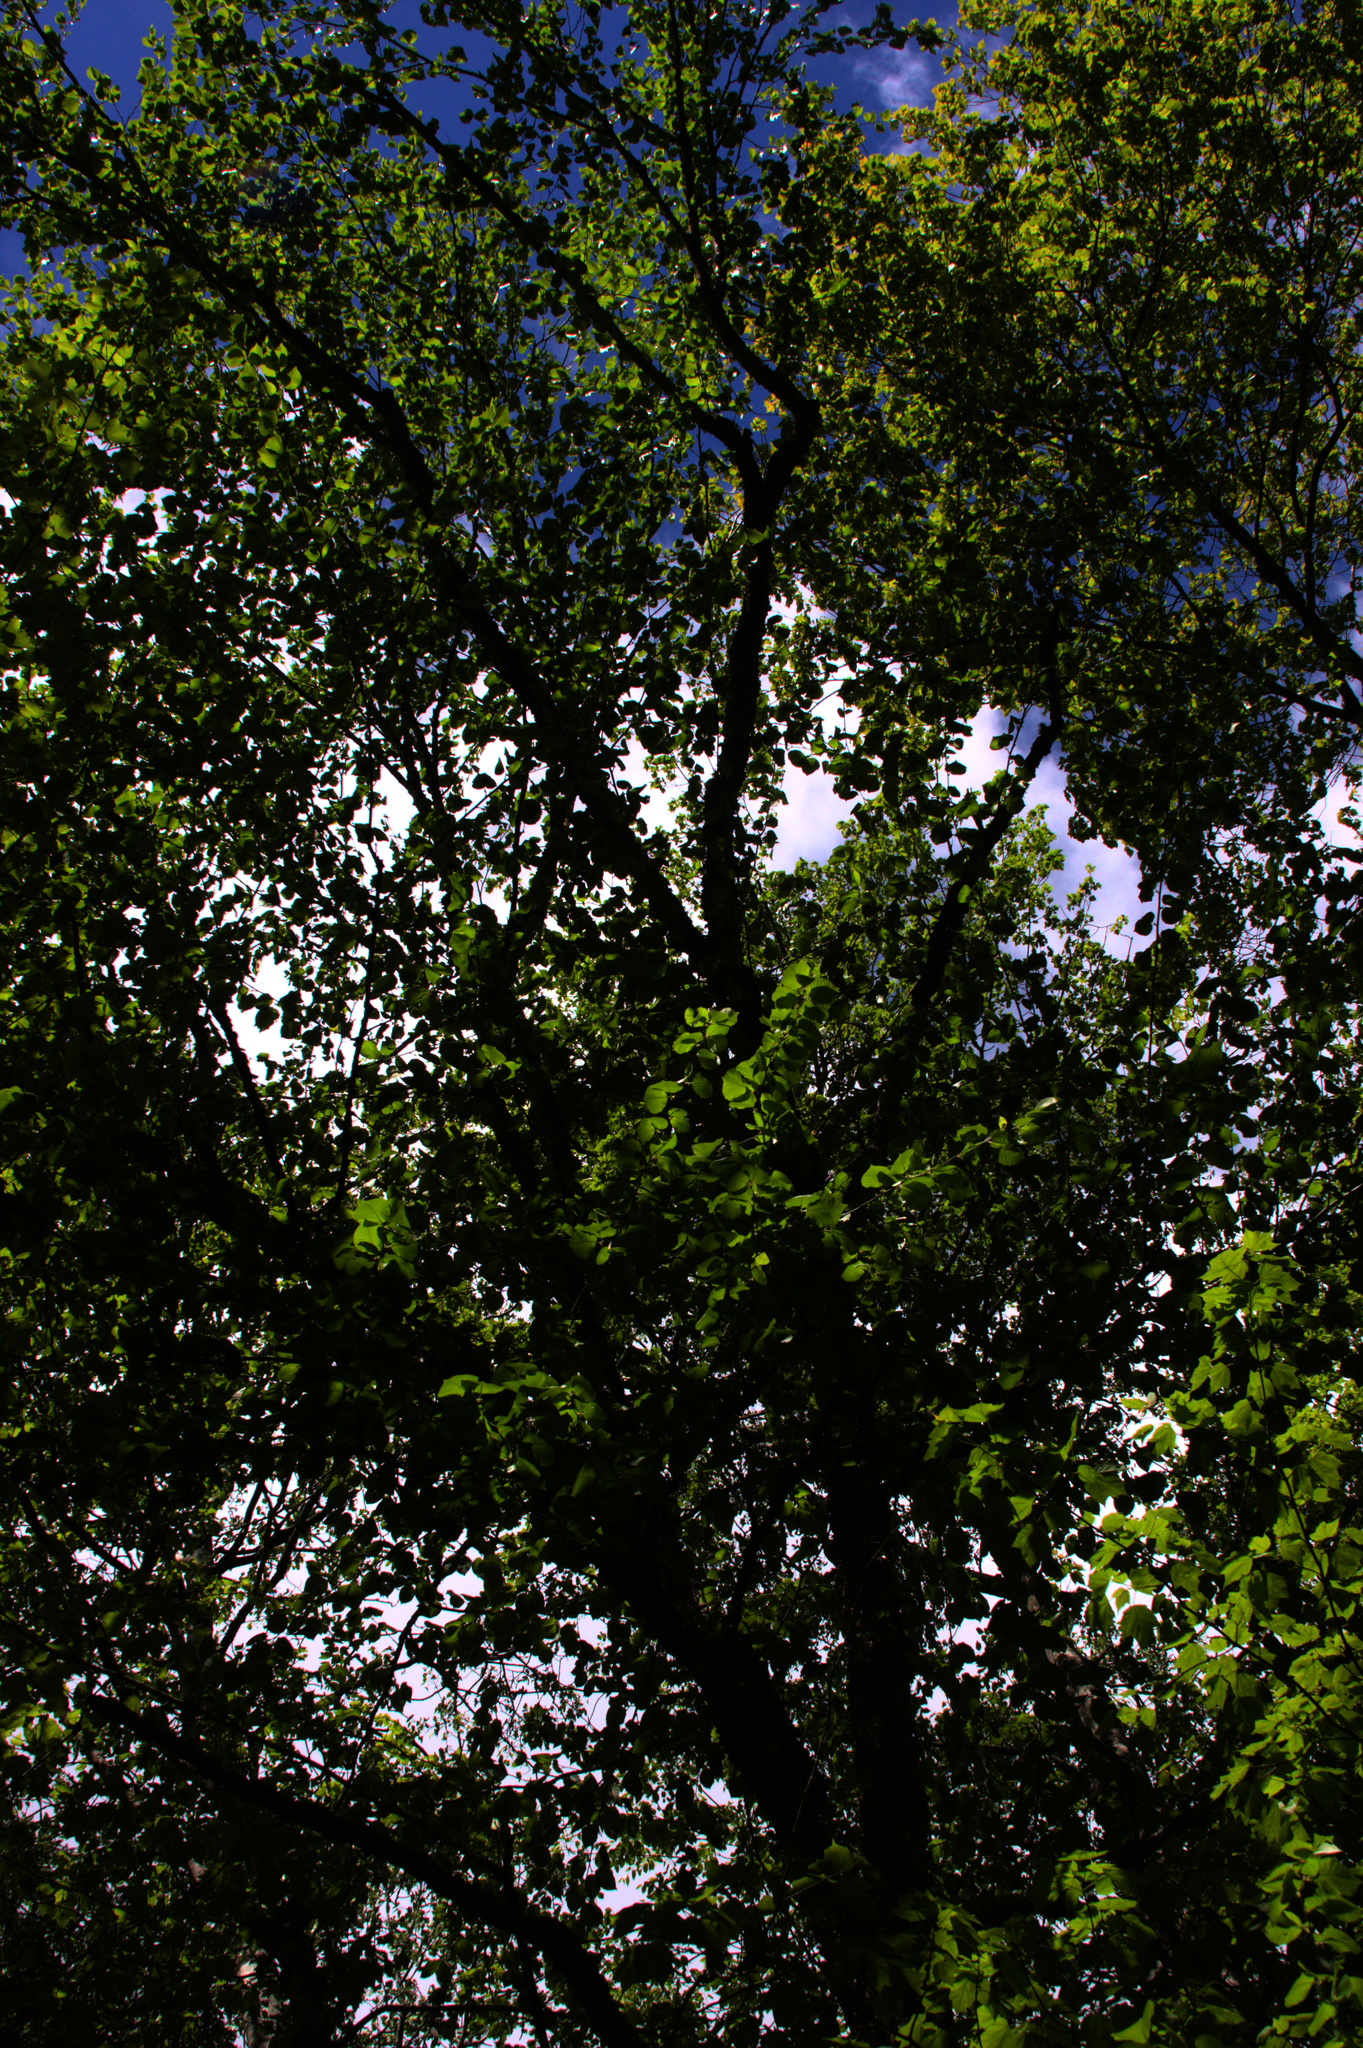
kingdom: Plantae
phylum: Tracheophyta
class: Magnoliopsida
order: Fagales
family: Betulaceae
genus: Betula
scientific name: Betula alleghaniensis
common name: Yellow birch
